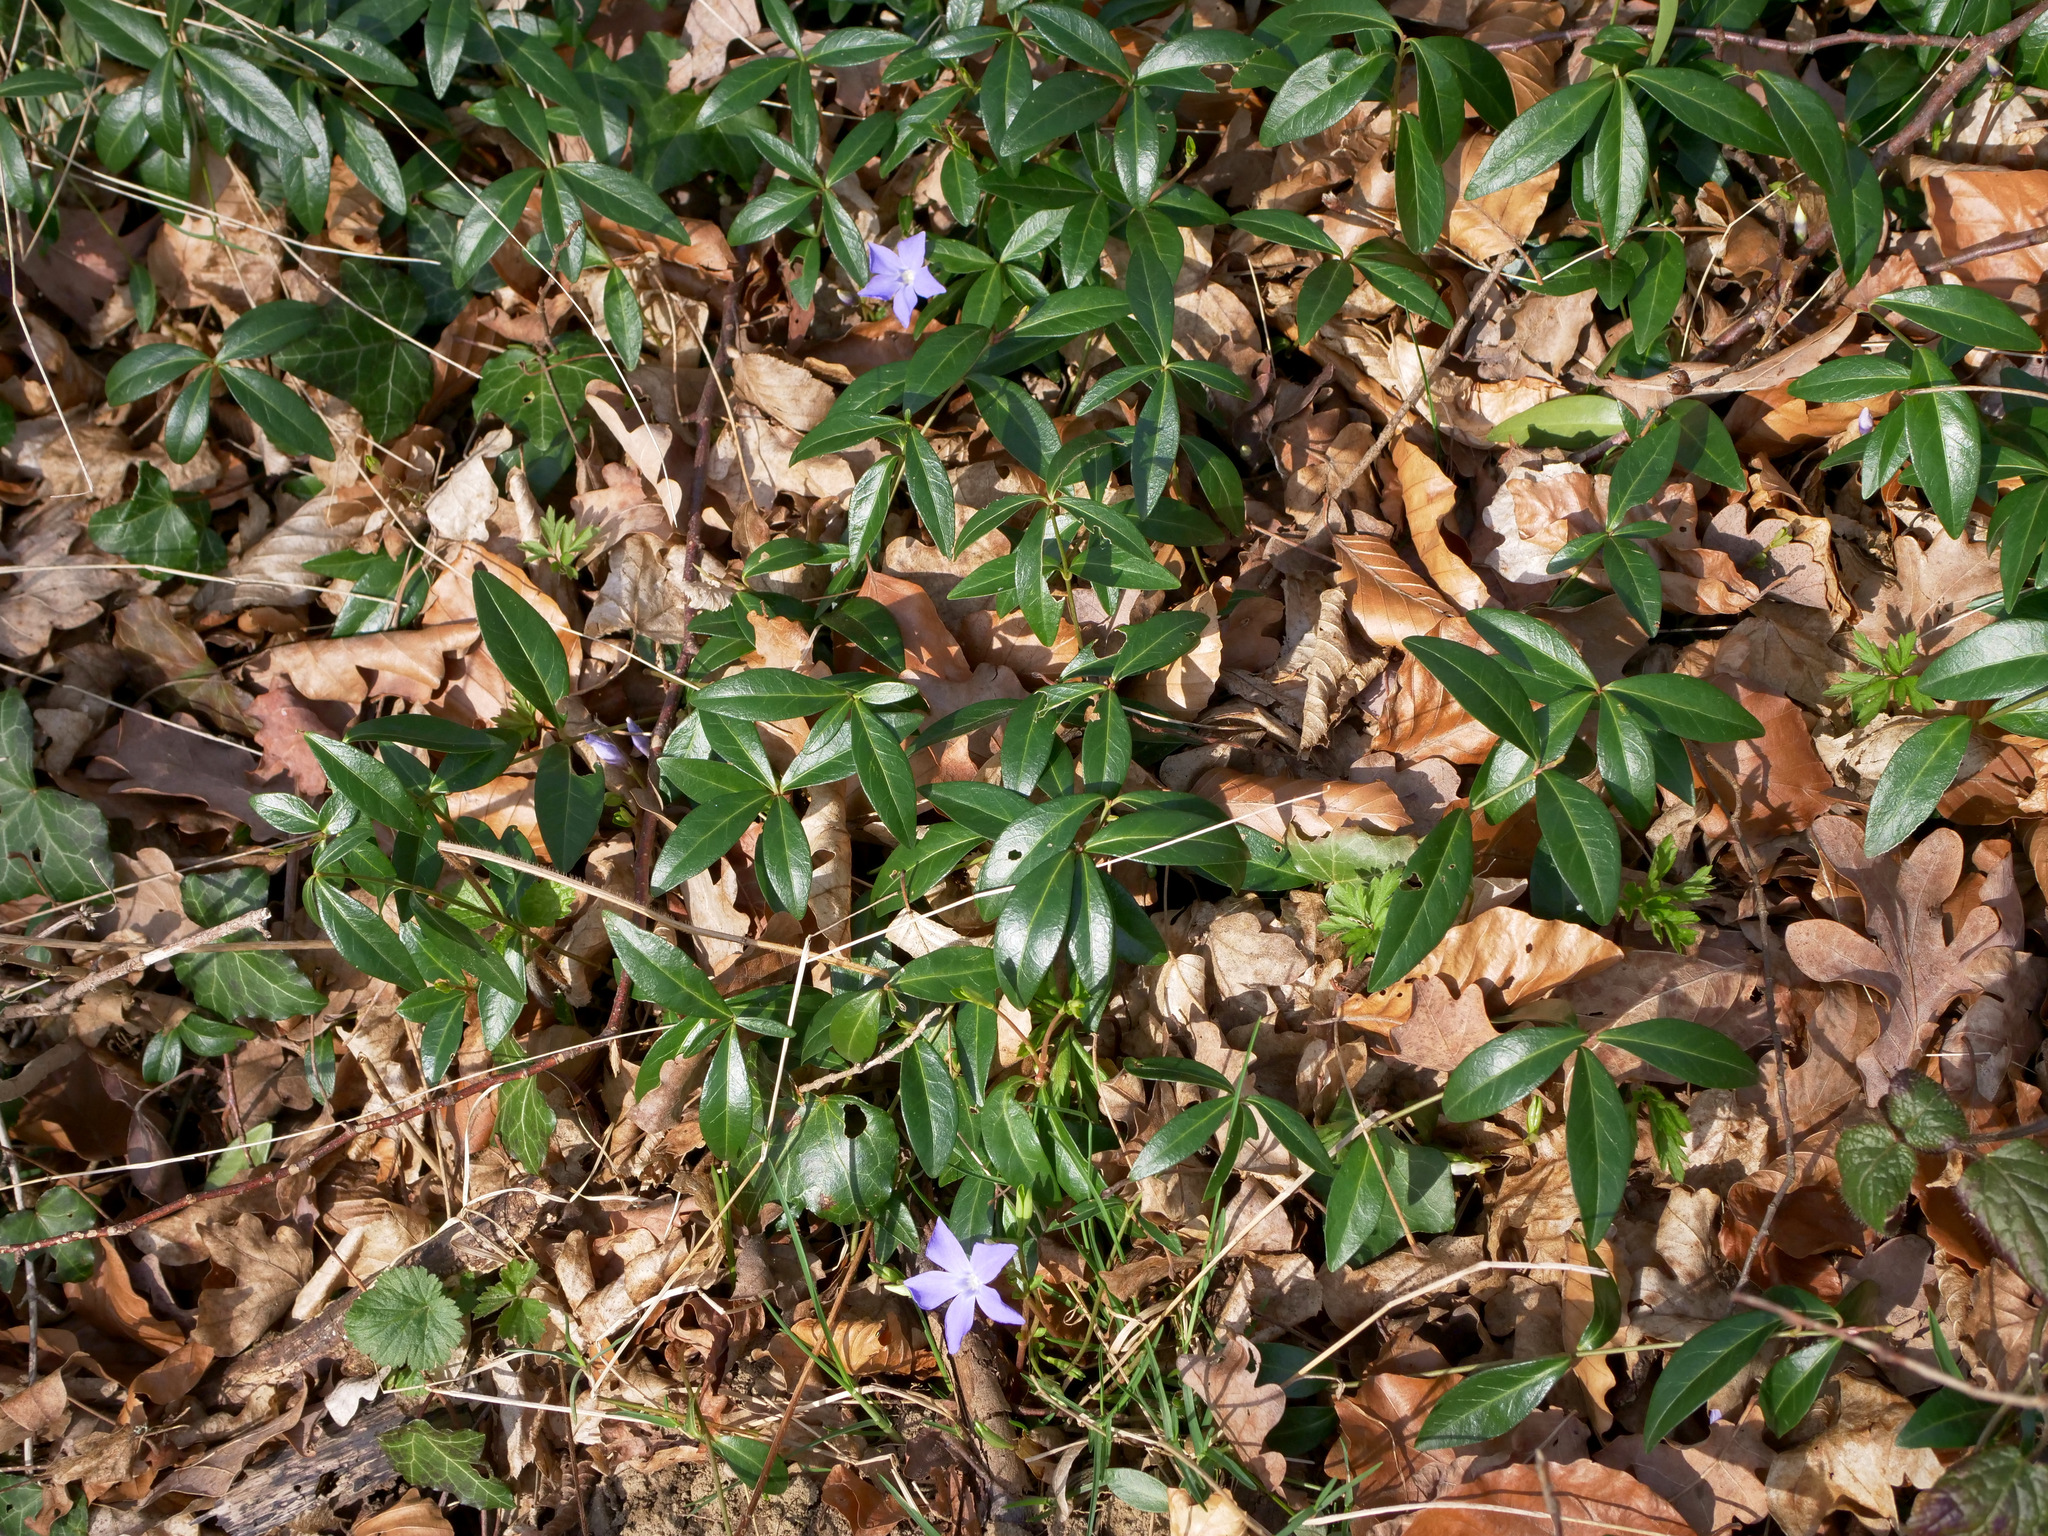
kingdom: Plantae
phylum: Tracheophyta
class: Magnoliopsida
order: Gentianales
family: Apocynaceae
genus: Vinca
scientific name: Vinca minor
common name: Lesser periwinkle
